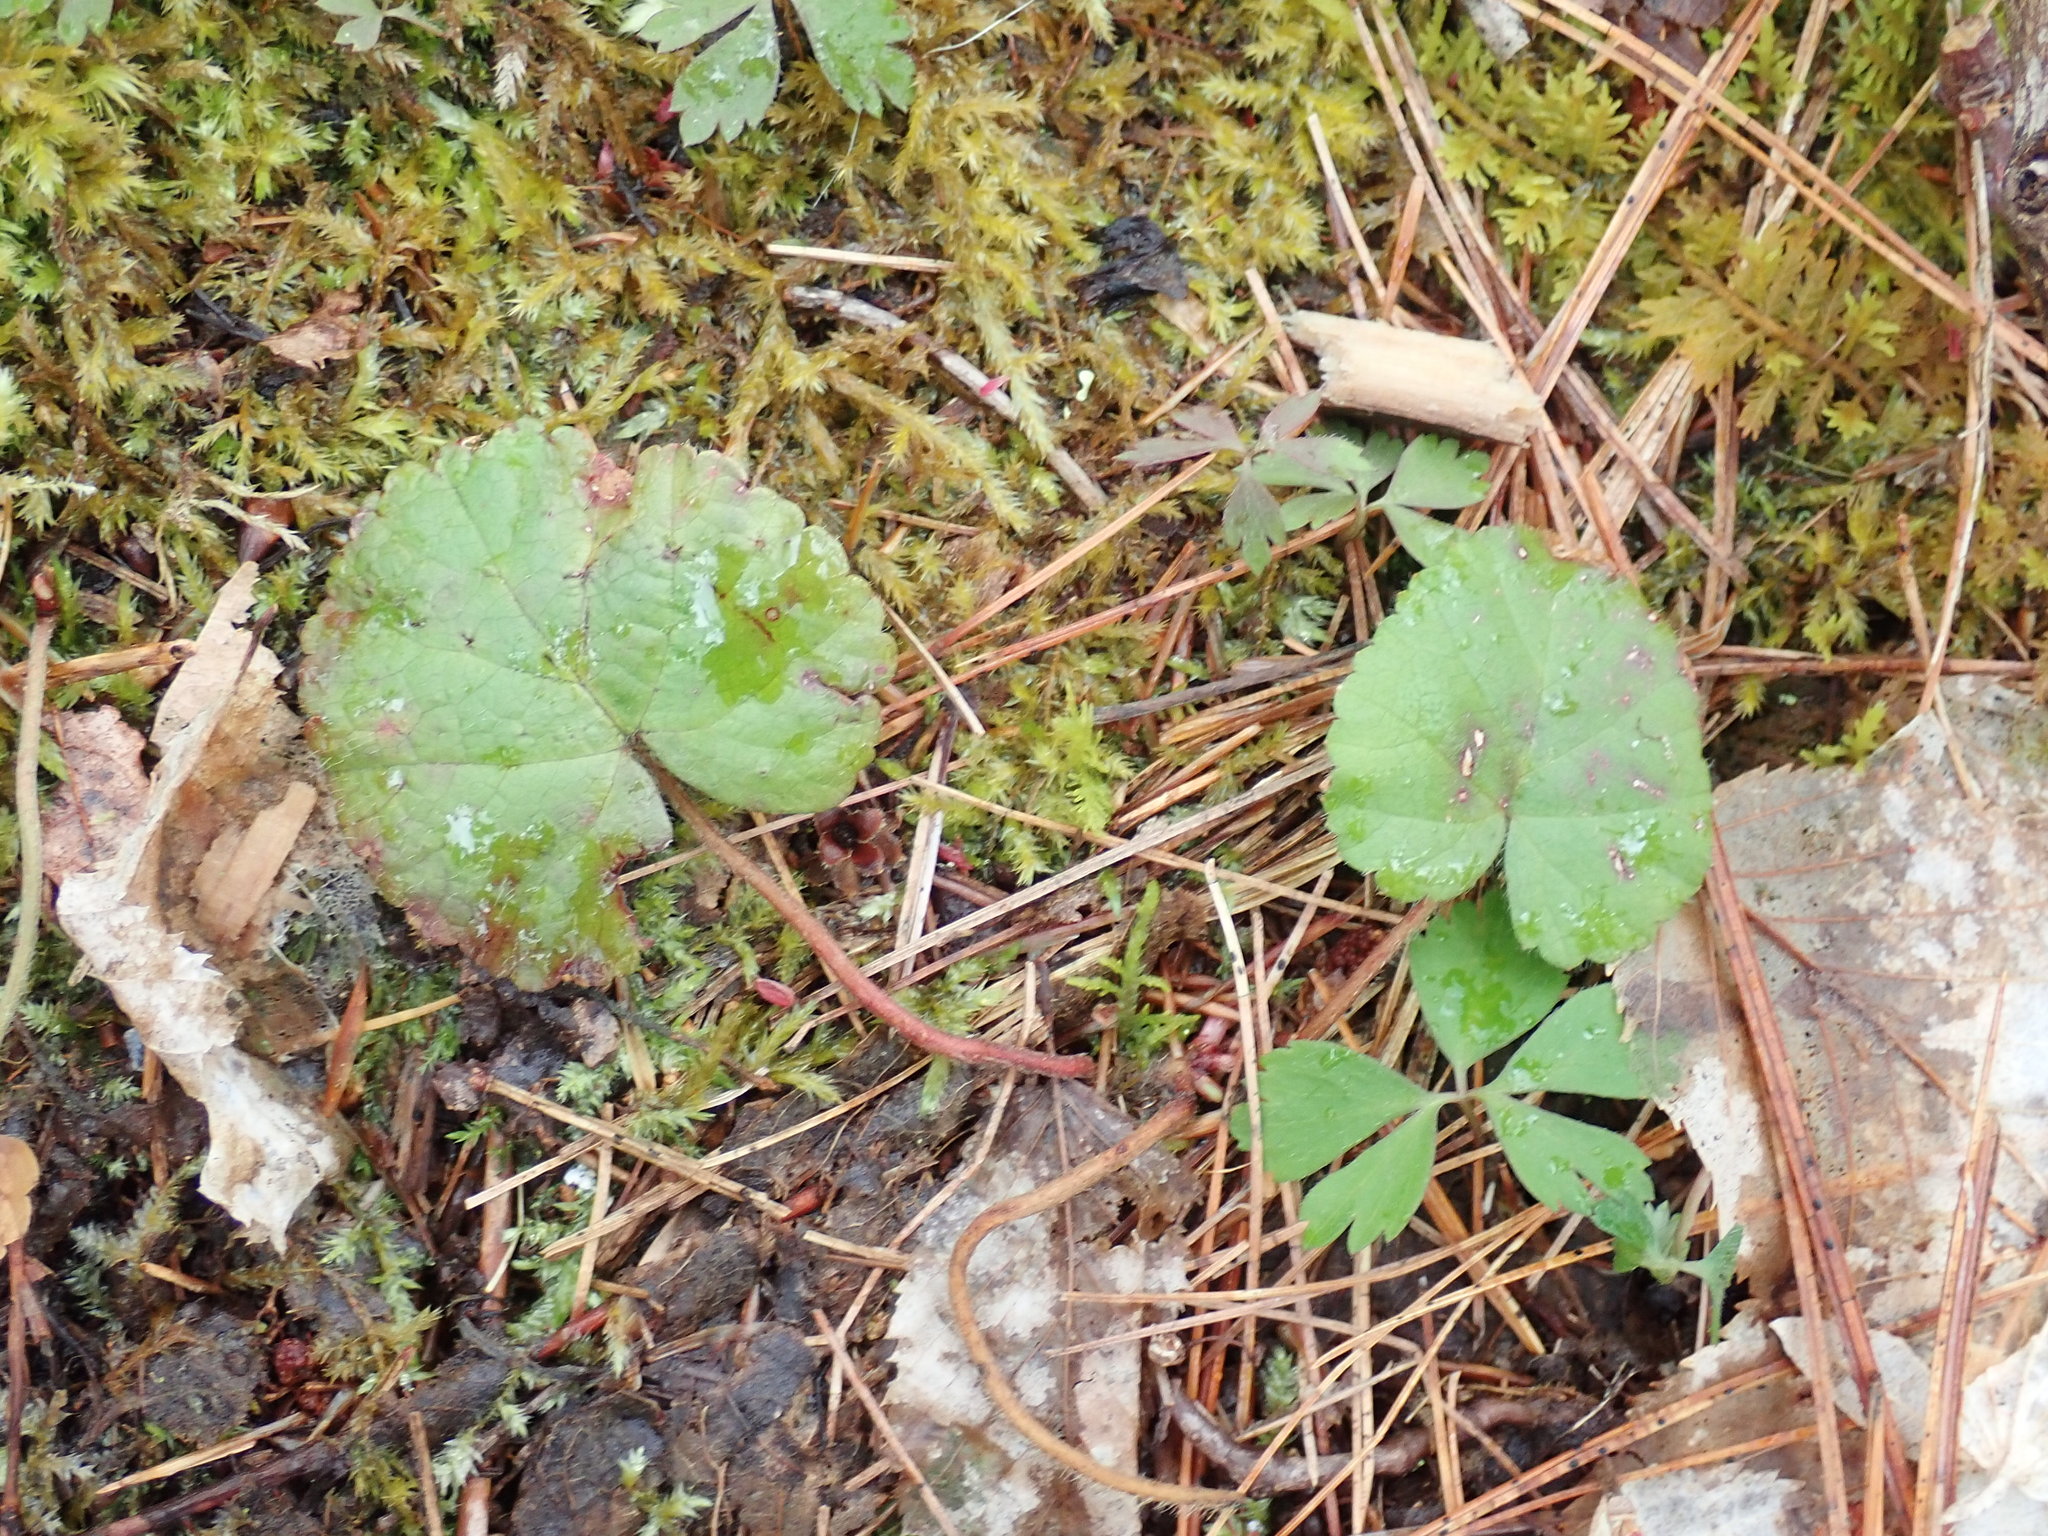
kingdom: Plantae
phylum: Tracheophyta
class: Magnoliopsida
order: Rosales
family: Rosaceae
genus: Dalibarda
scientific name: Dalibarda repens
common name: Dewdrop
